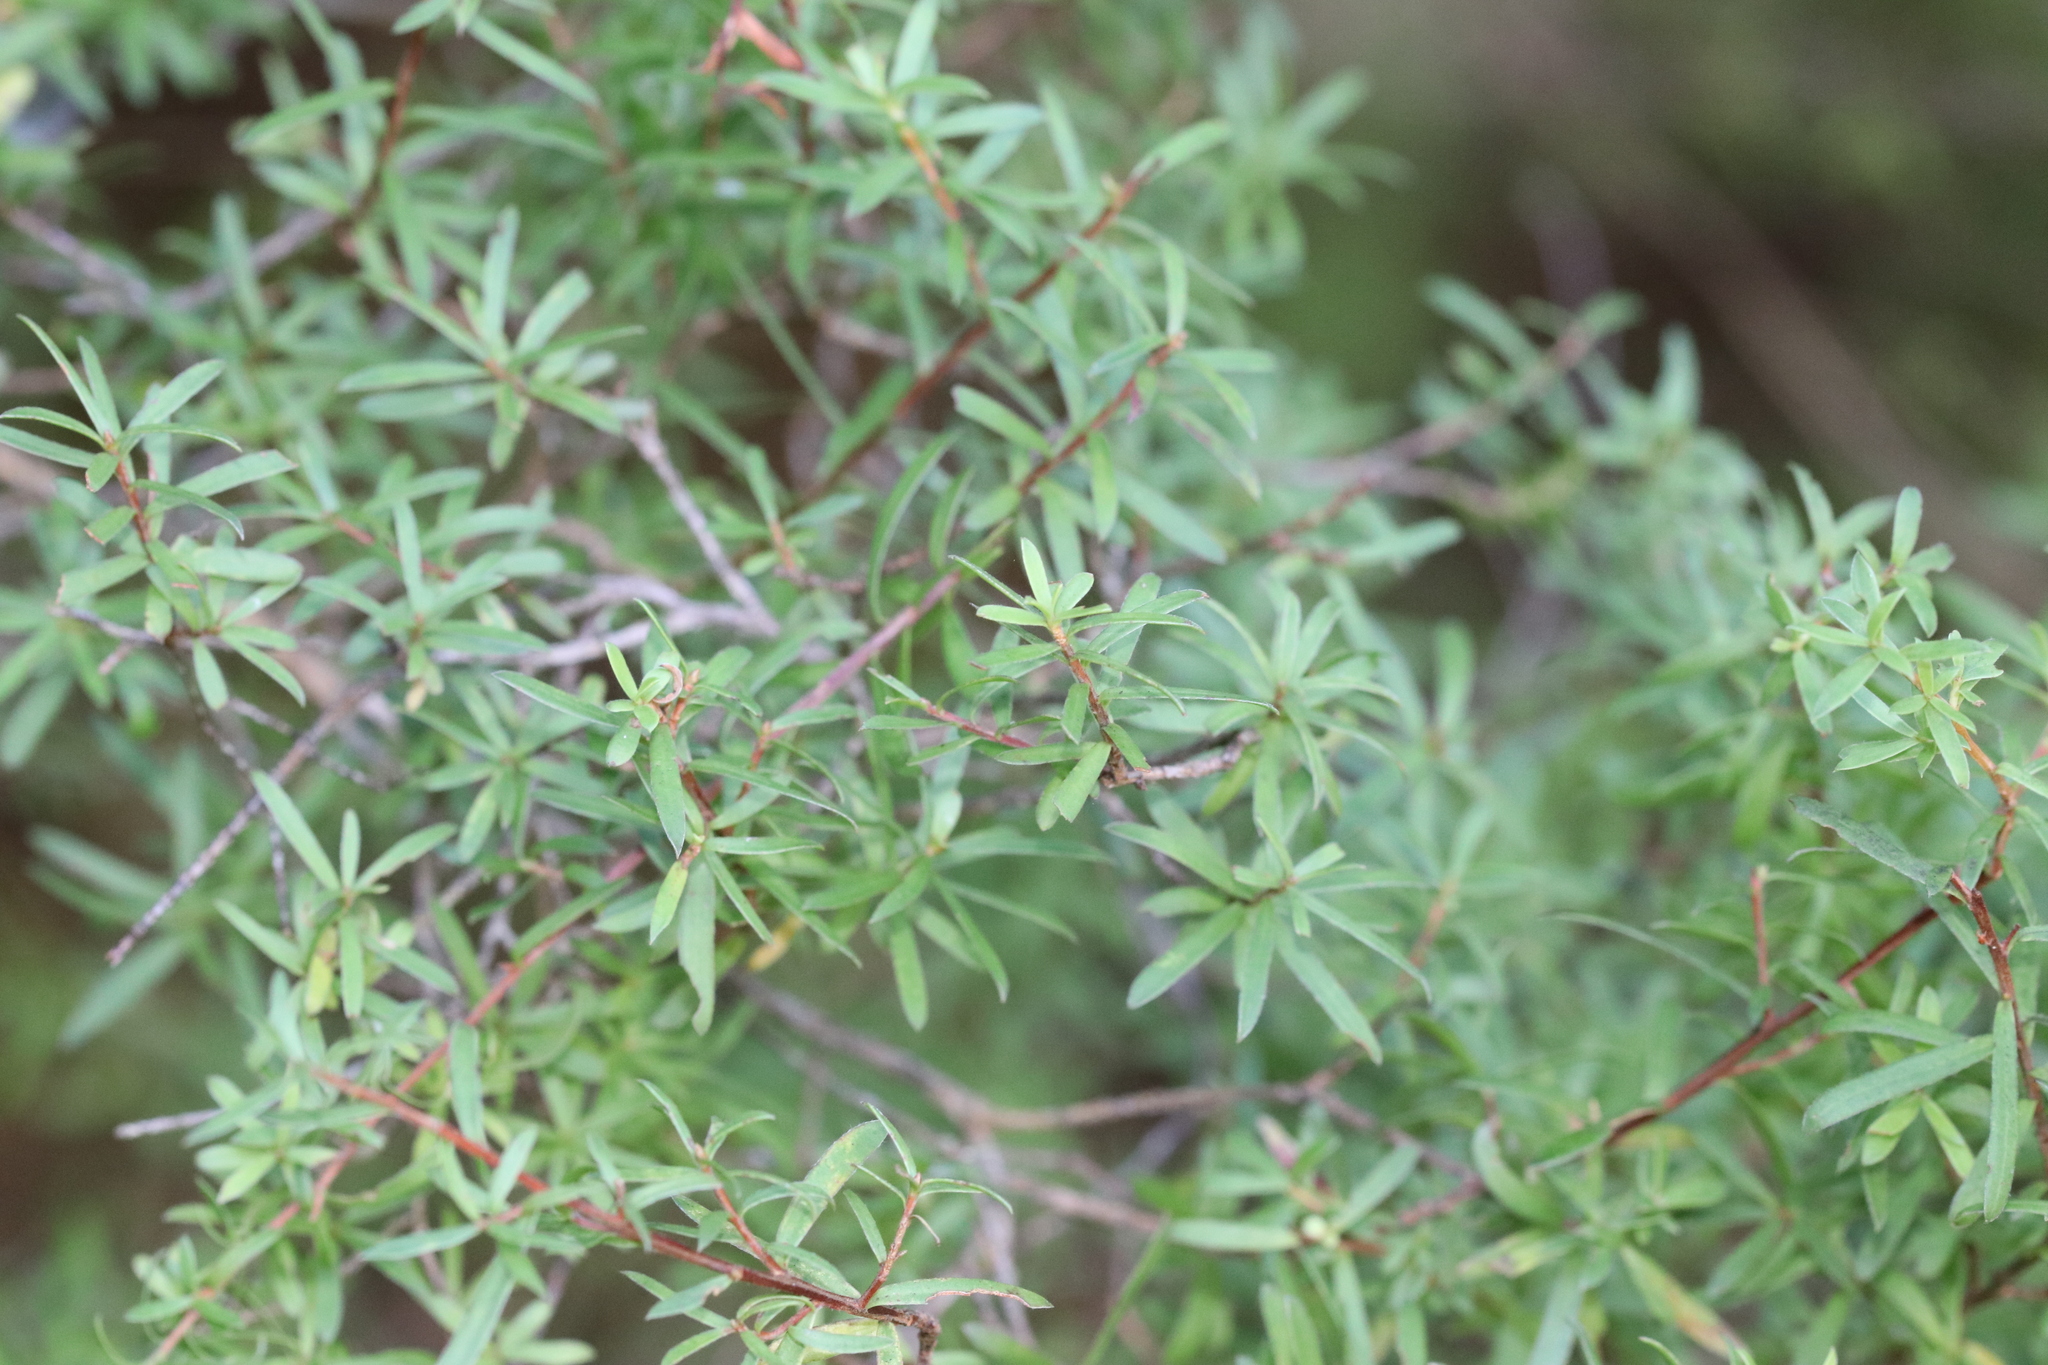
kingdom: Plantae
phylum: Tracheophyta
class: Magnoliopsida
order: Myrtales
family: Myrtaceae
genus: Kunzea
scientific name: Kunzea robusta
